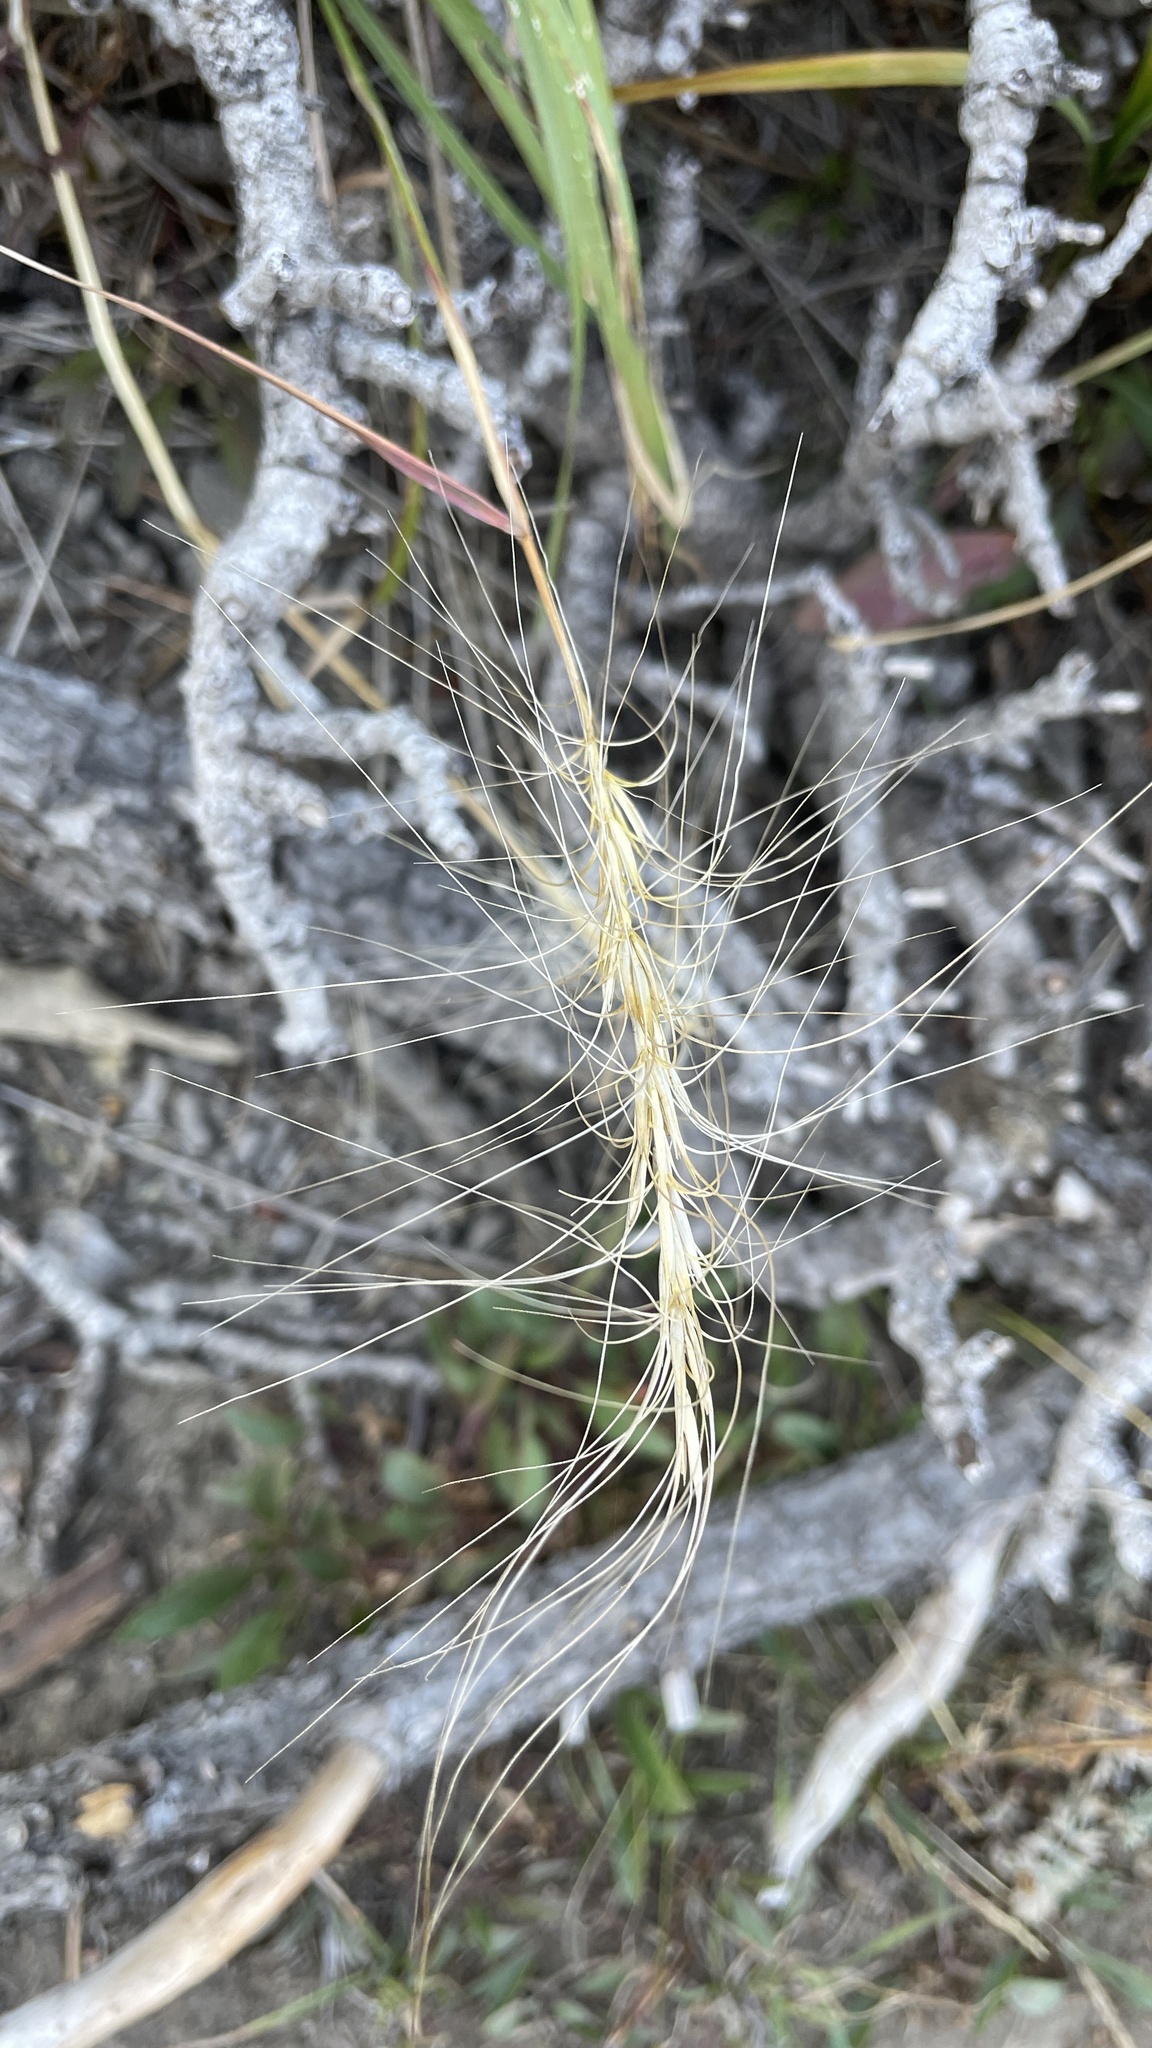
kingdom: Plantae
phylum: Tracheophyta
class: Liliopsida
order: Poales
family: Poaceae
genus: Elymus
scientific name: Elymus elymoides
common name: Bottlebrush squirreltail
